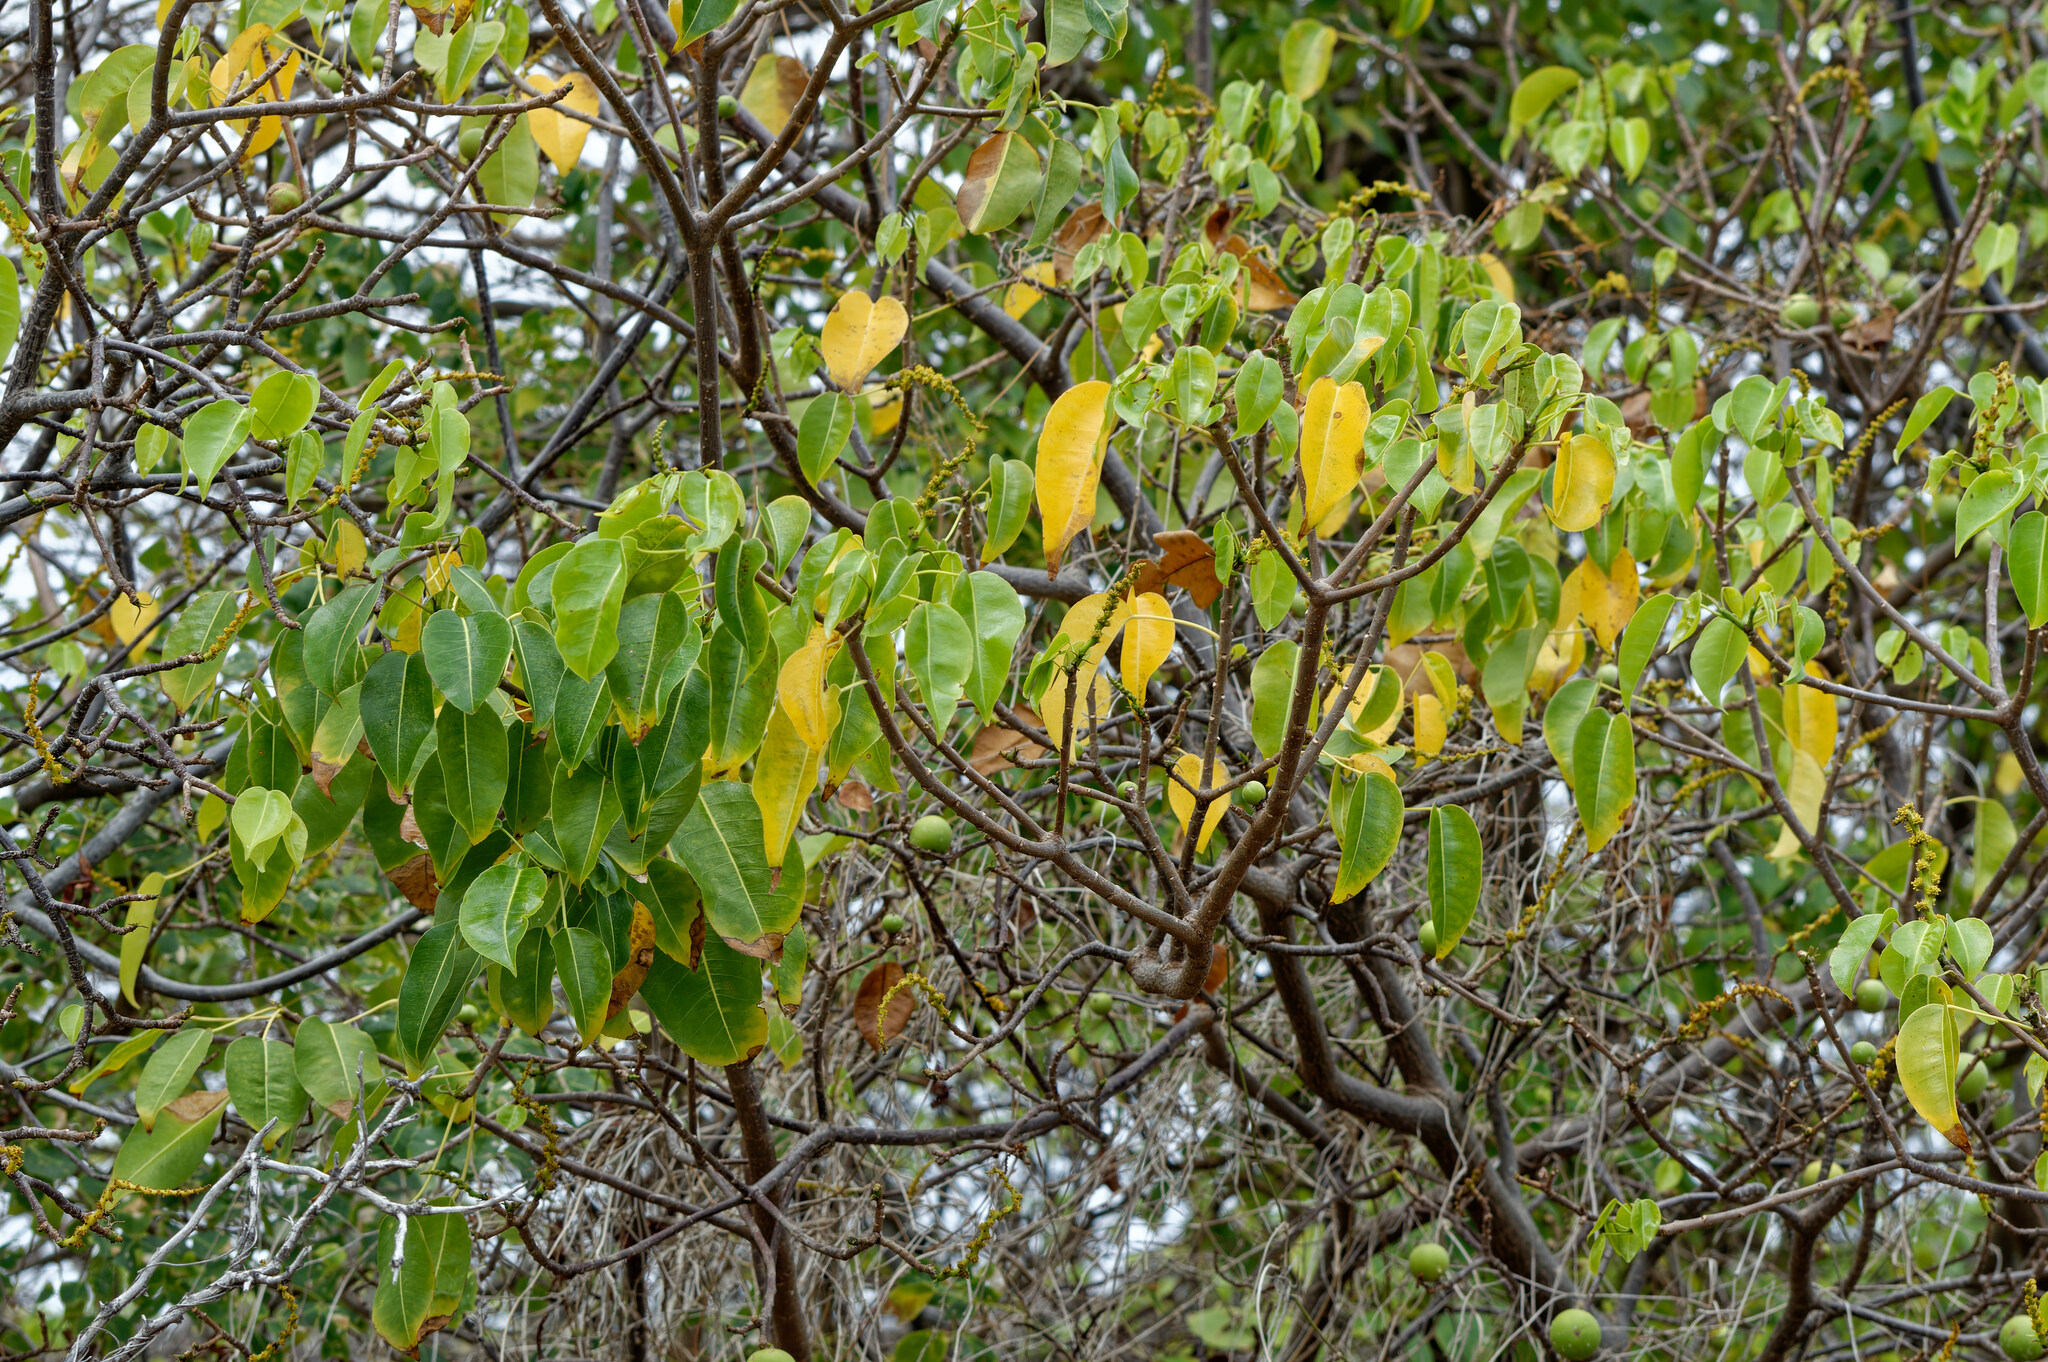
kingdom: Plantae
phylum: Tracheophyta
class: Magnoliopsida
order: Malpighiales
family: Euphorbiaceae
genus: Hippomane
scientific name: Hippomane mancinella
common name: Manchineel
